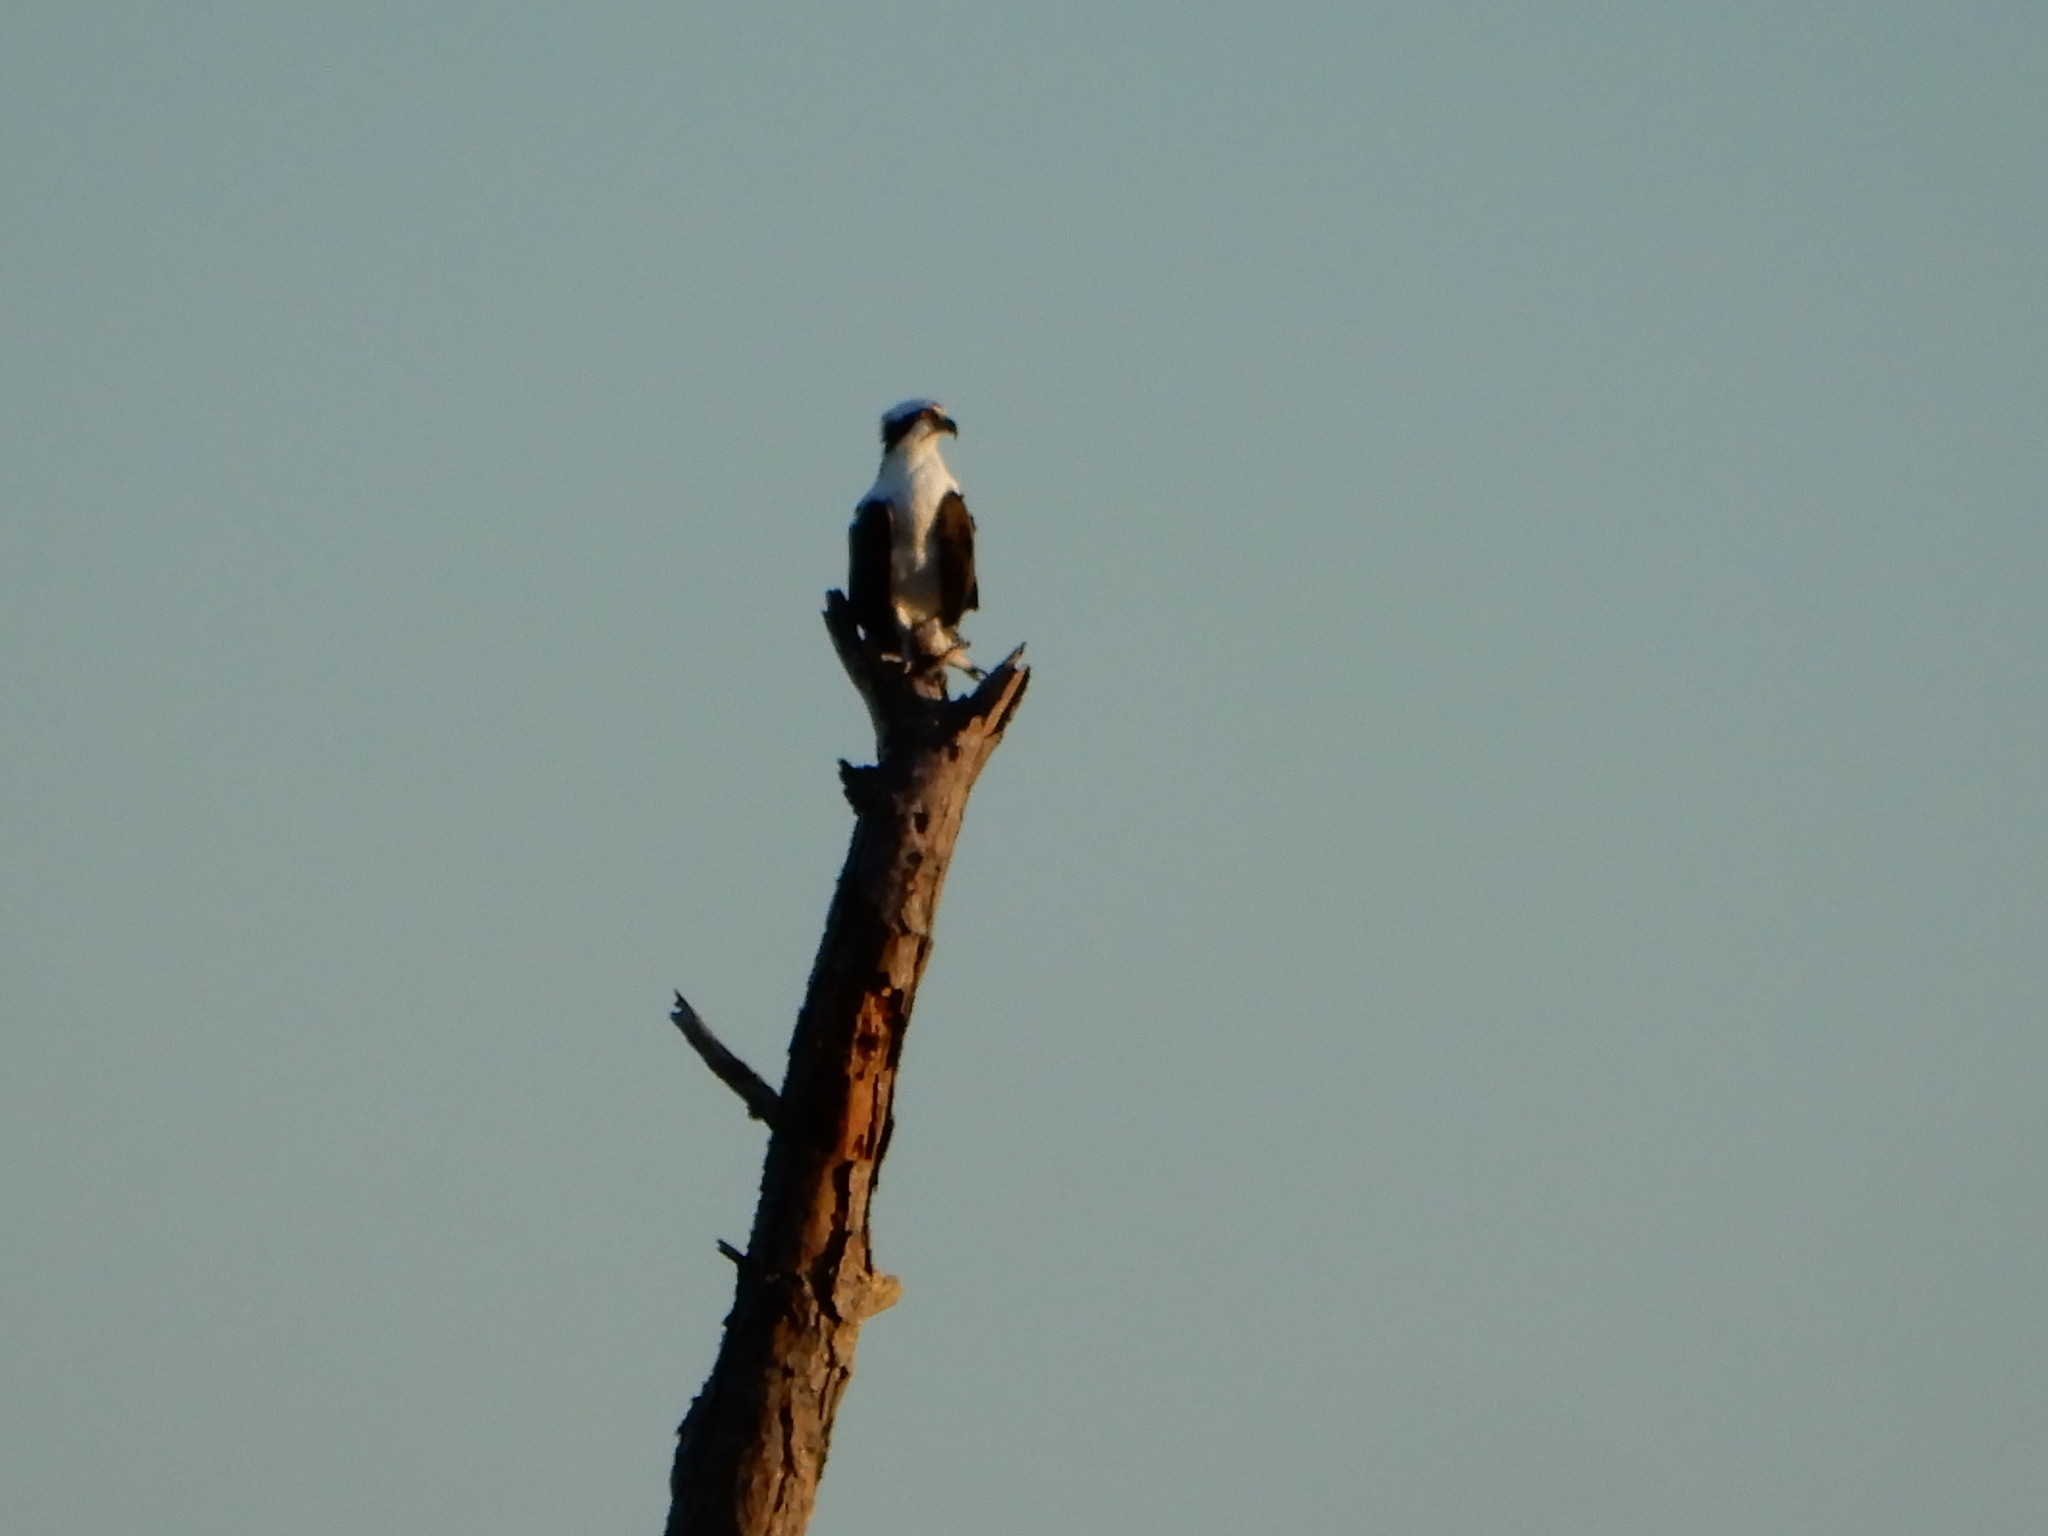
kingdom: Animalia
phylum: Chordata
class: Aves
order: Accipitriformes
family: Pandionidae
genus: Pandion
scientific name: Pandion haliaetus
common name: Osprey
